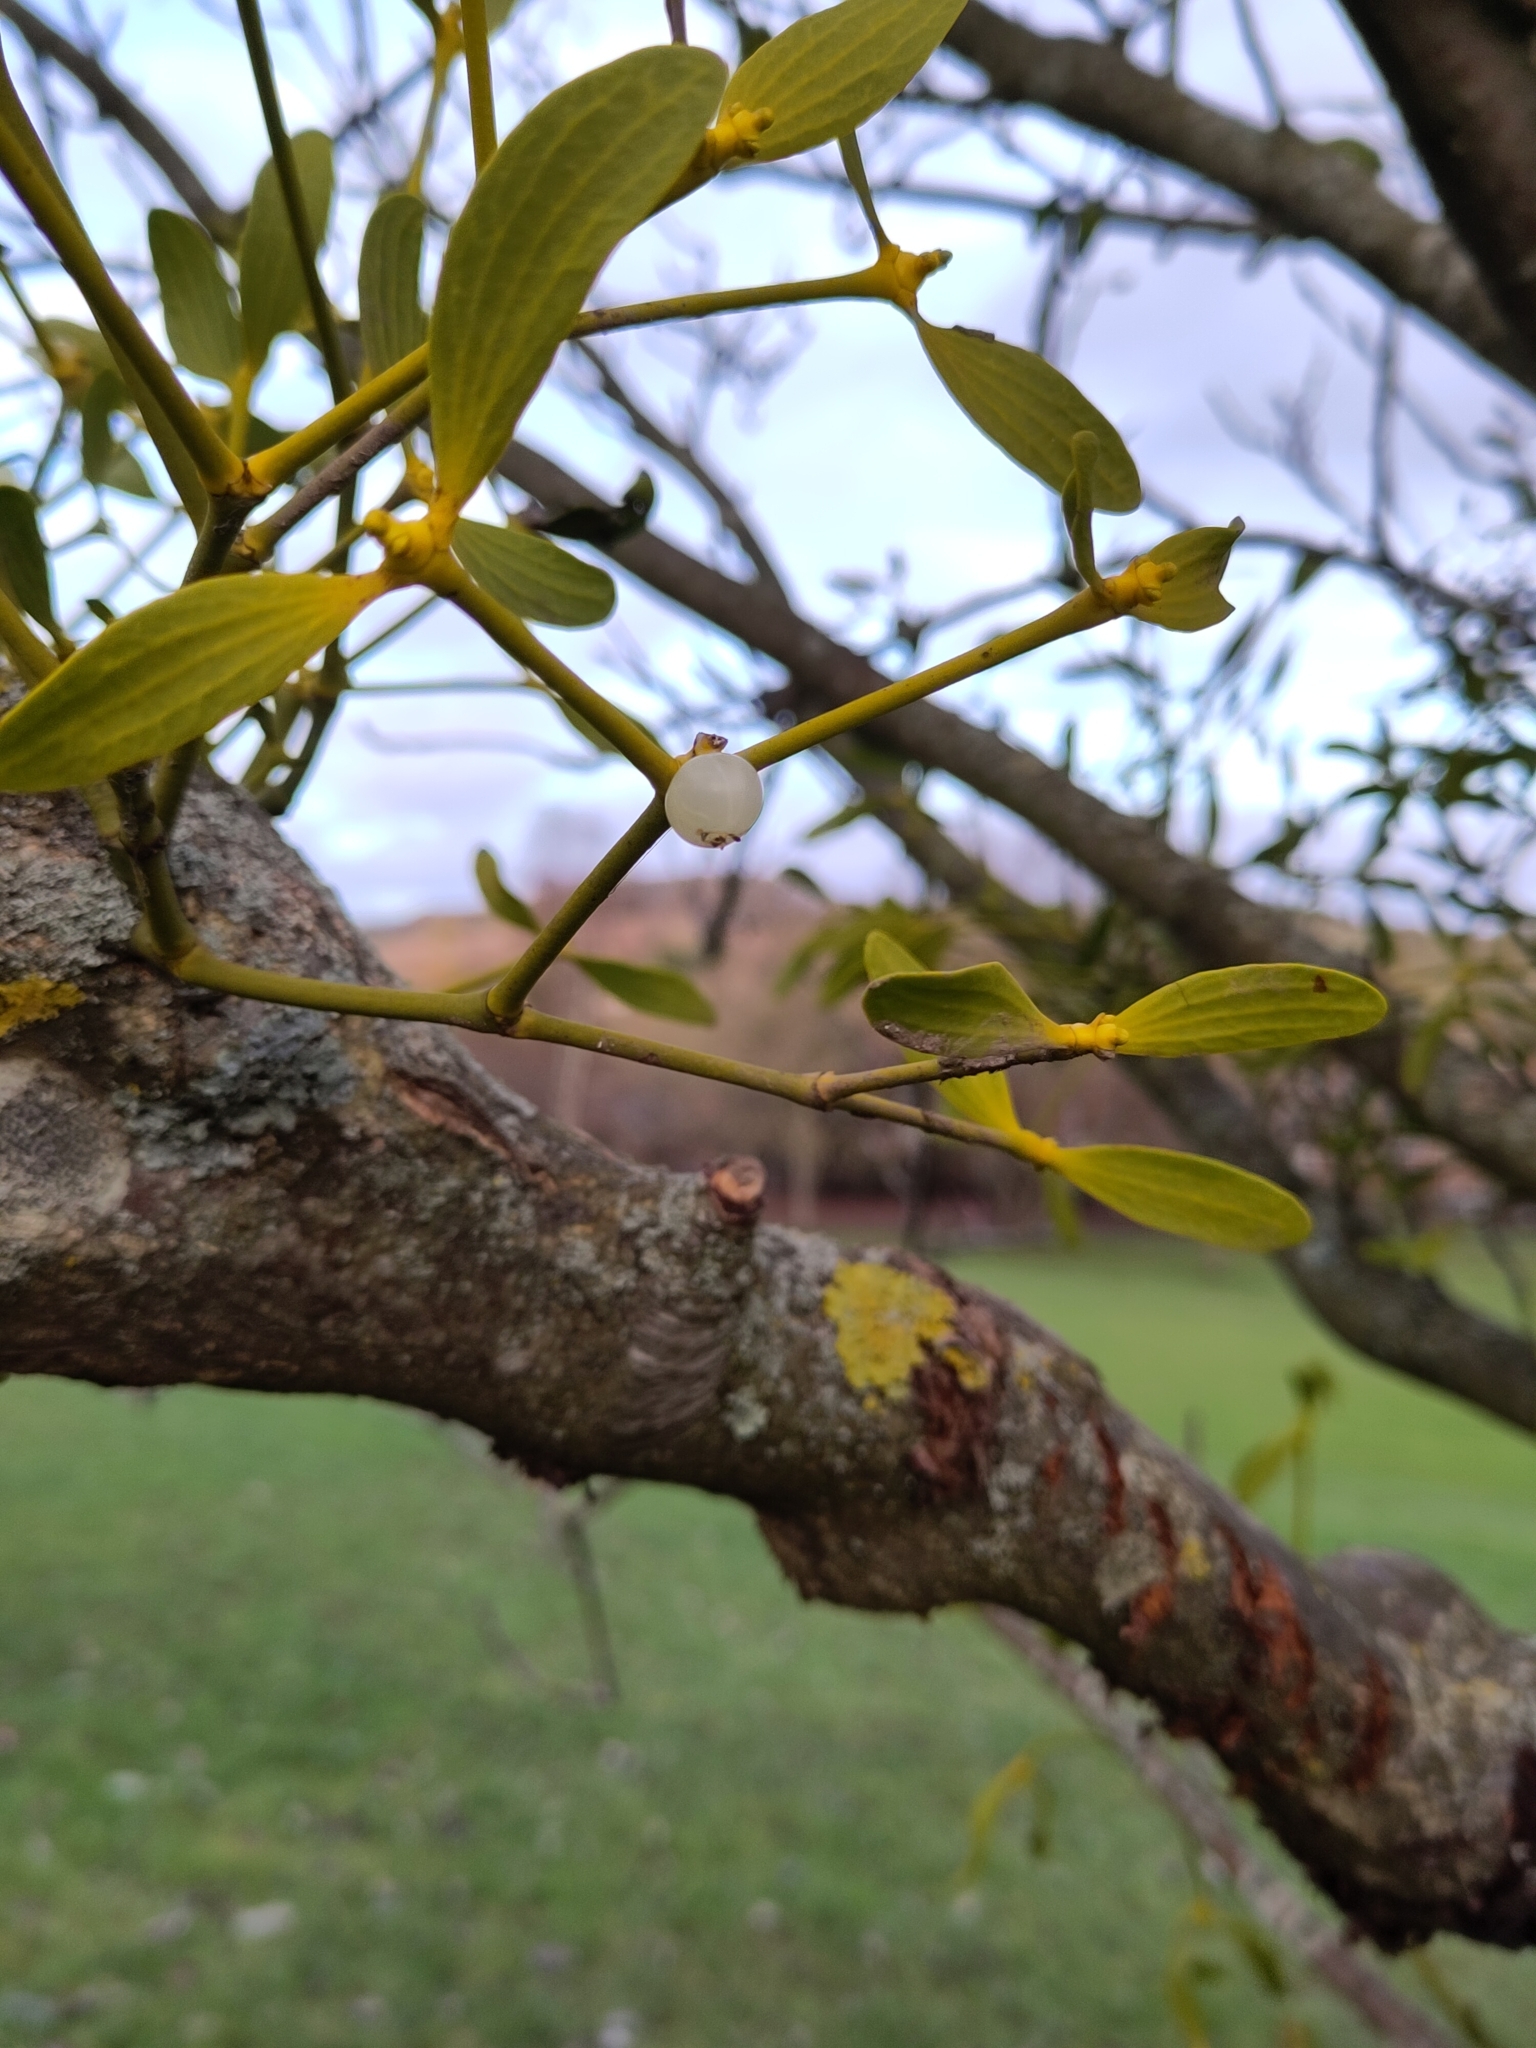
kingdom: Plantae
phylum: Tracheophyta
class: Magnoliopsida
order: Santalales
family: Viscaceae
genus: Viscum
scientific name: Viscum album
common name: Mistletoe
